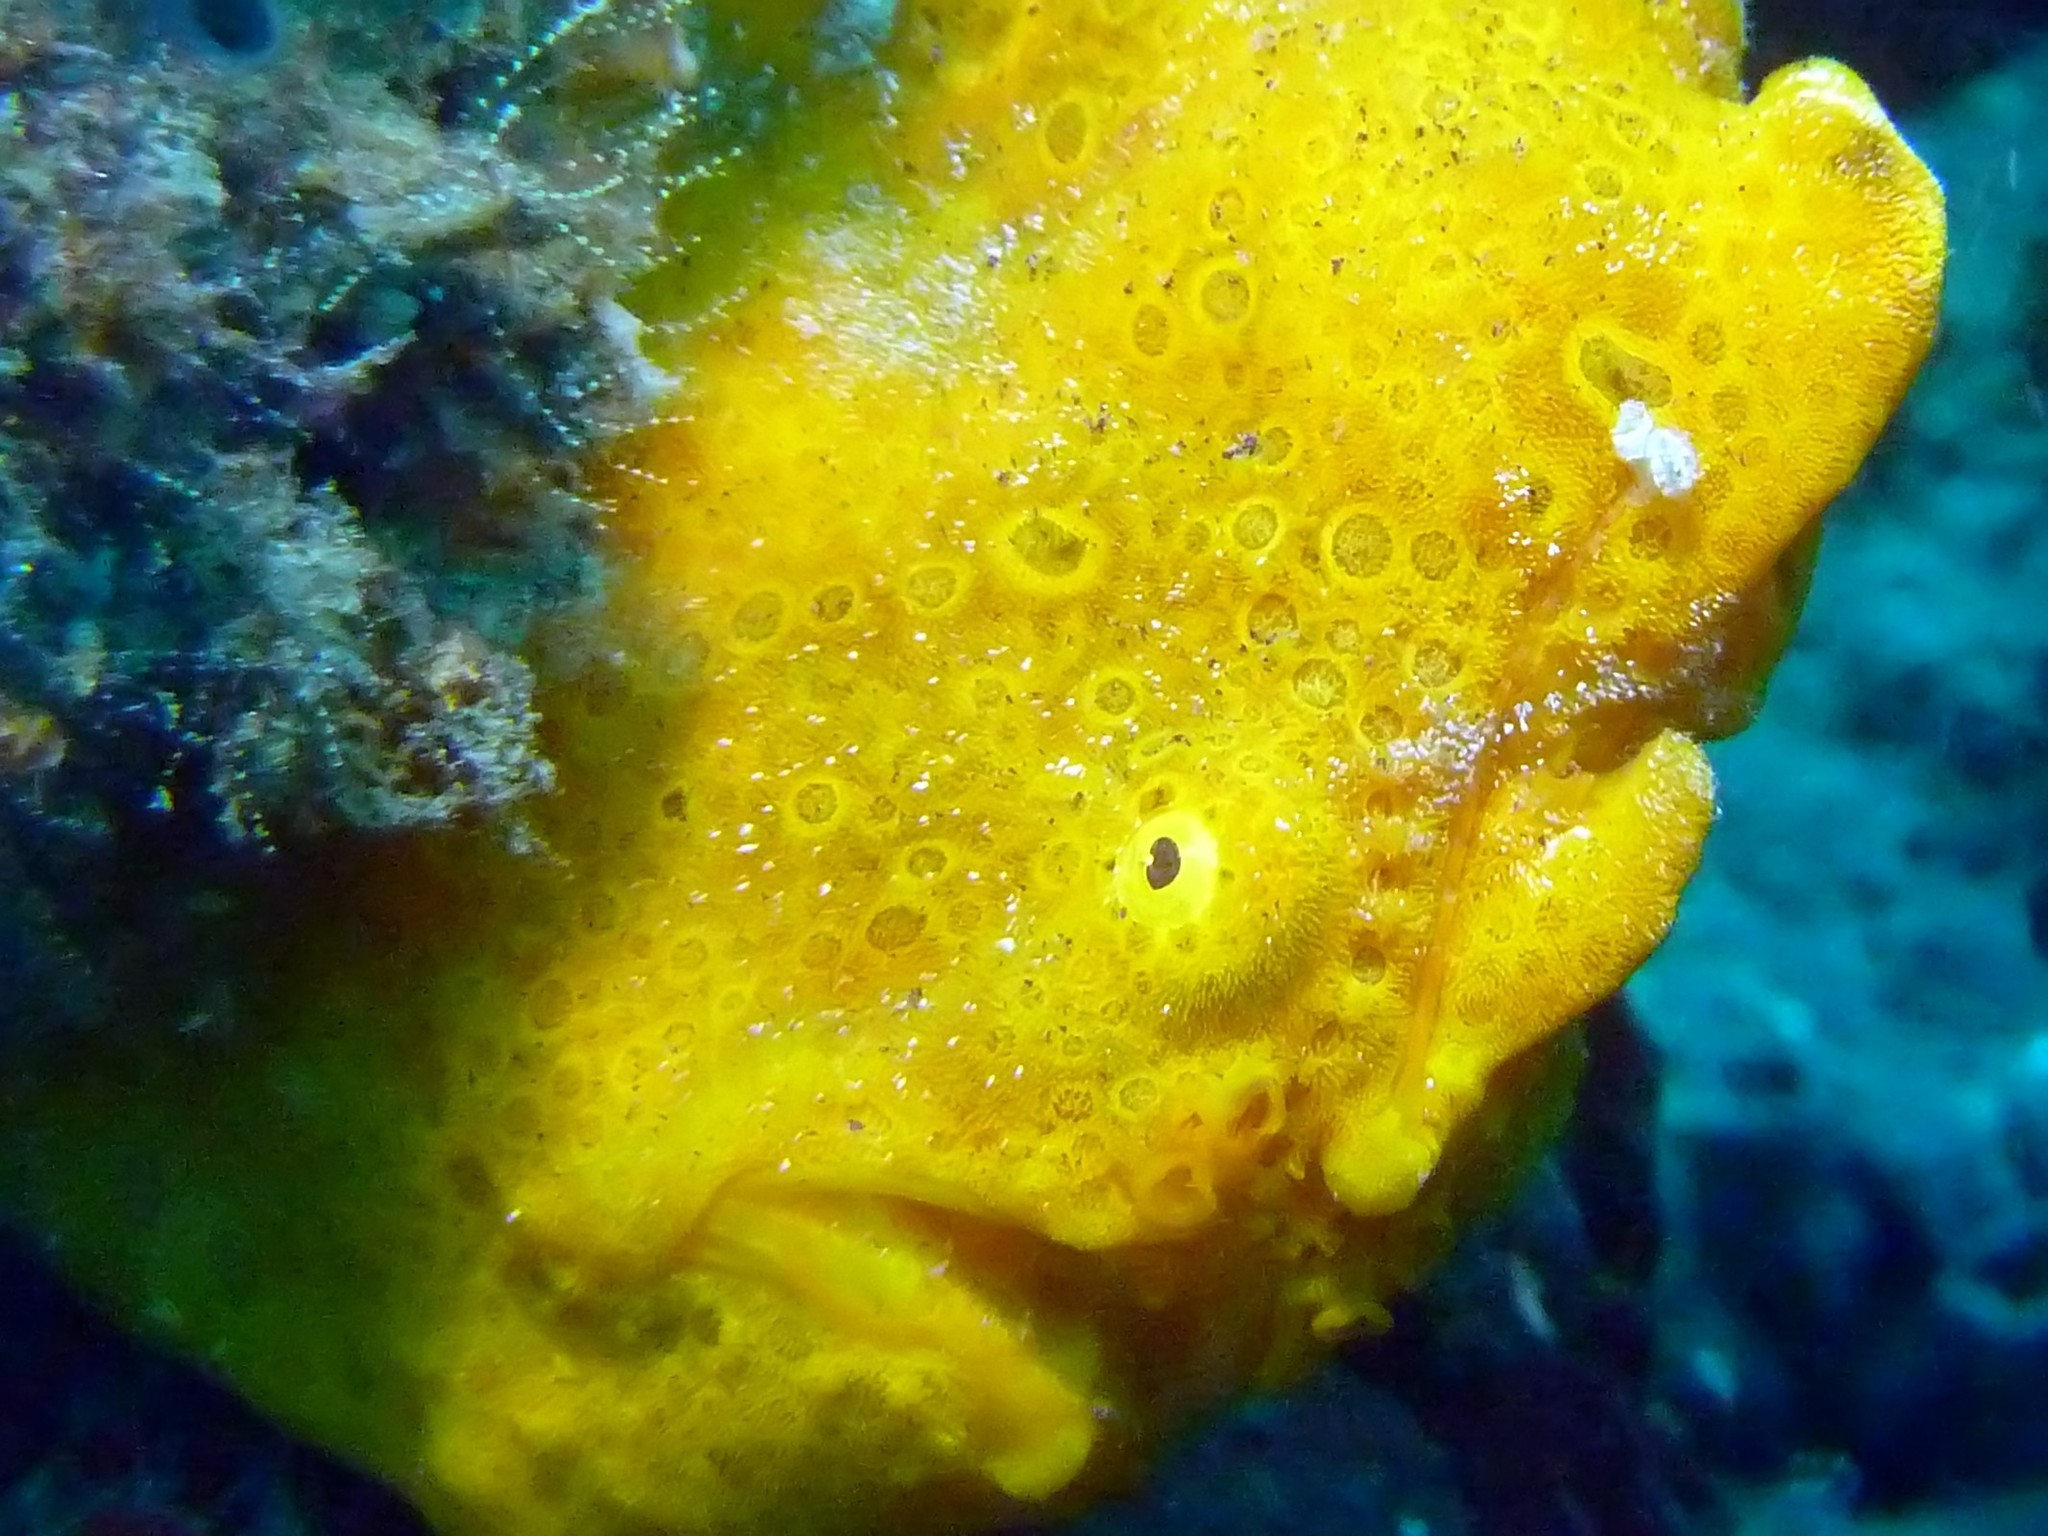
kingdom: Animalia
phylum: Chordata
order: Lophiiformes
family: Antennariidae
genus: Antennarius
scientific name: Antennarius pictus
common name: Painted frogfish
